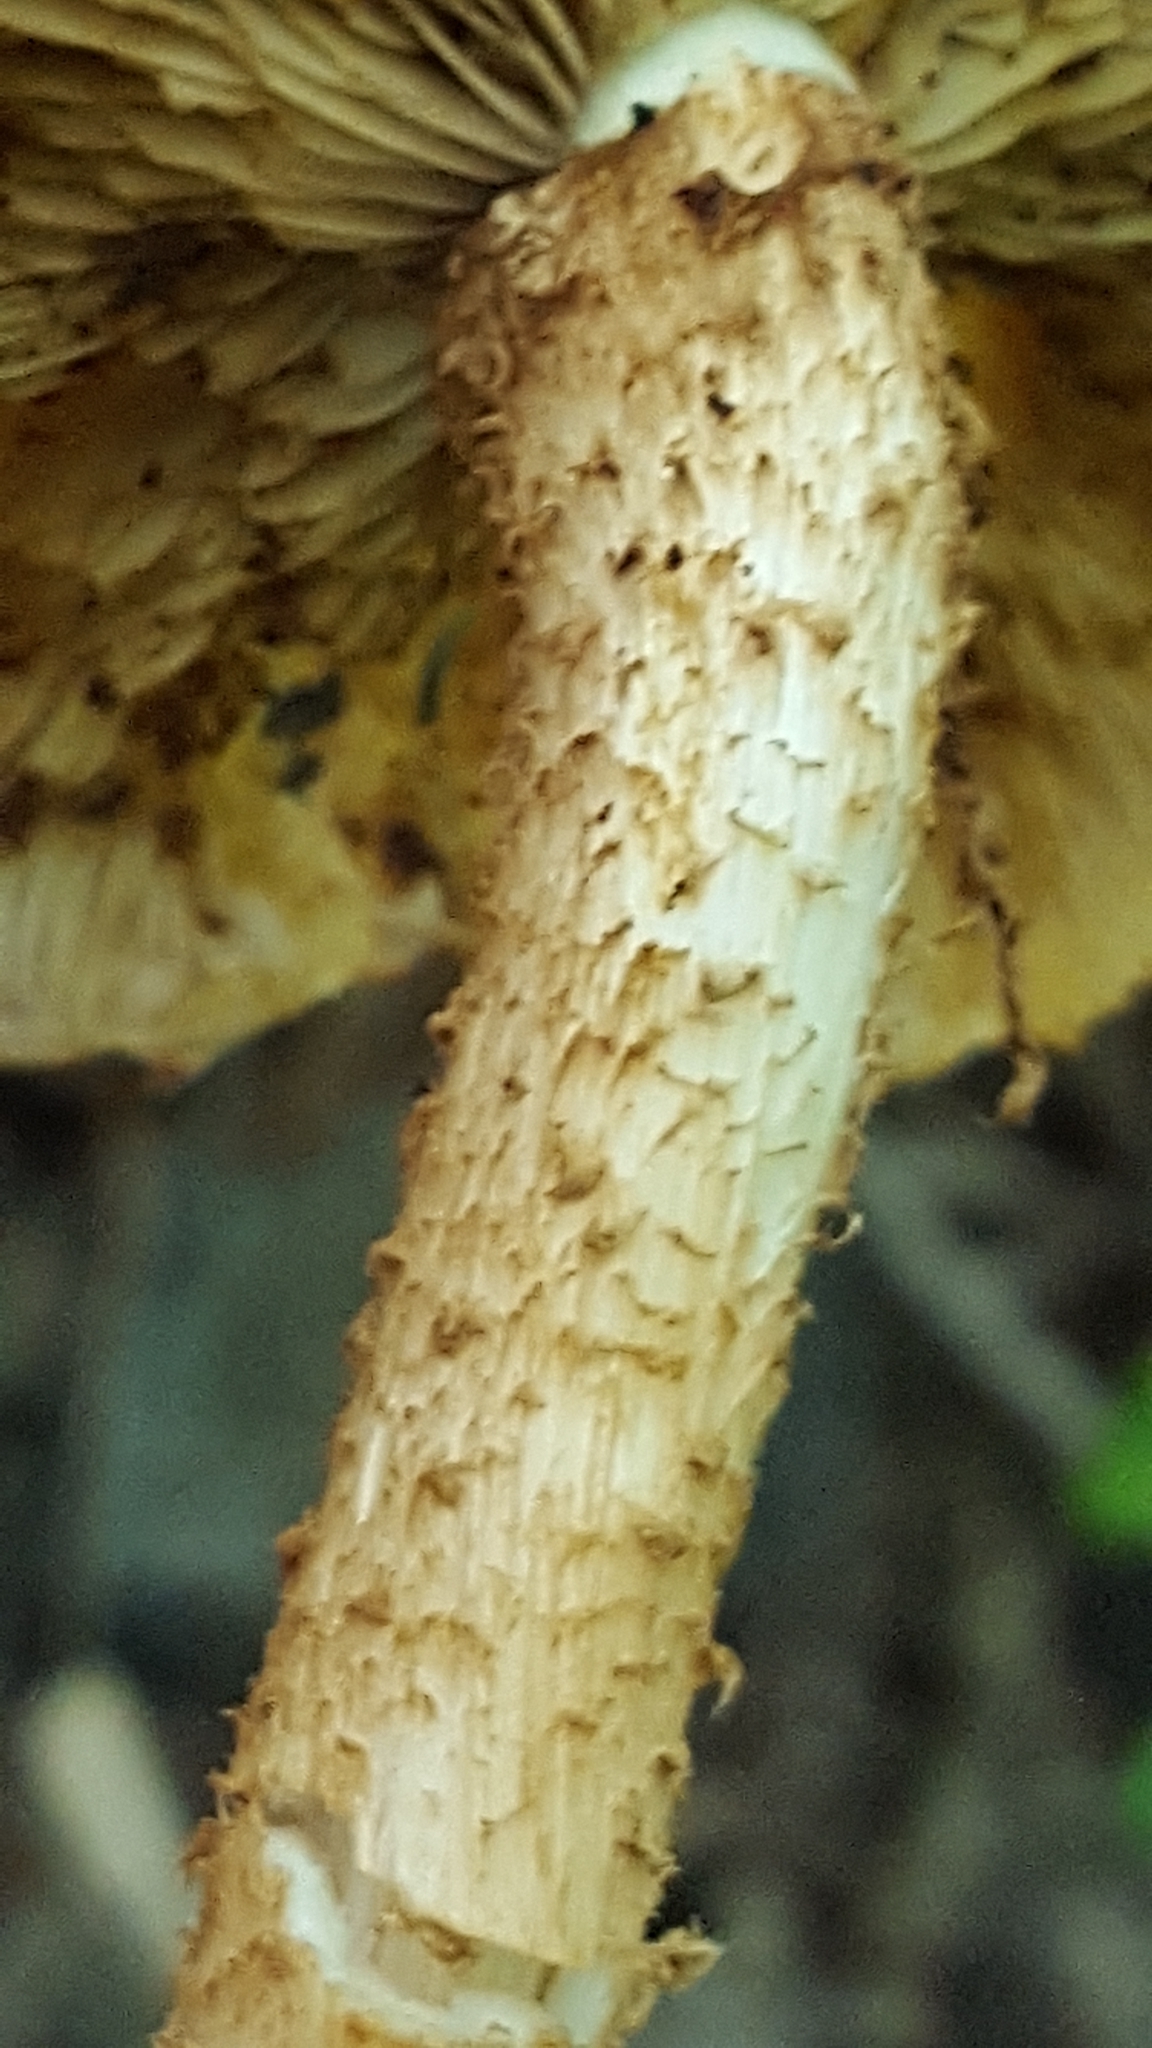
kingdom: Fungi
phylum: Basidiomycota
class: Agaricomycetes
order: Agaricales
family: Strophariaceae
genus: Pholiota
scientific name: Pholiota squarrosa
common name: Shaggy pholiota
